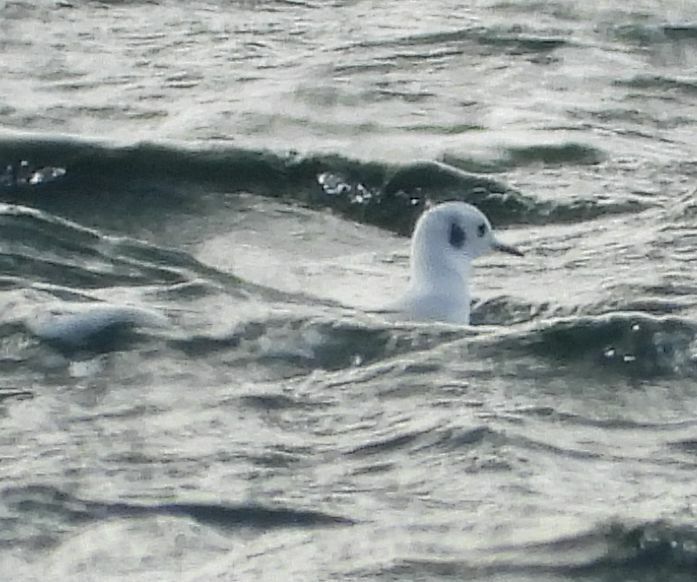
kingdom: Animalia
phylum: Chordata
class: Aves
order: Charadriiformes
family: Laridae
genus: Chroicocephalus
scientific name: Chroicocephalus philadelphia
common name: Bonaparte's gull
